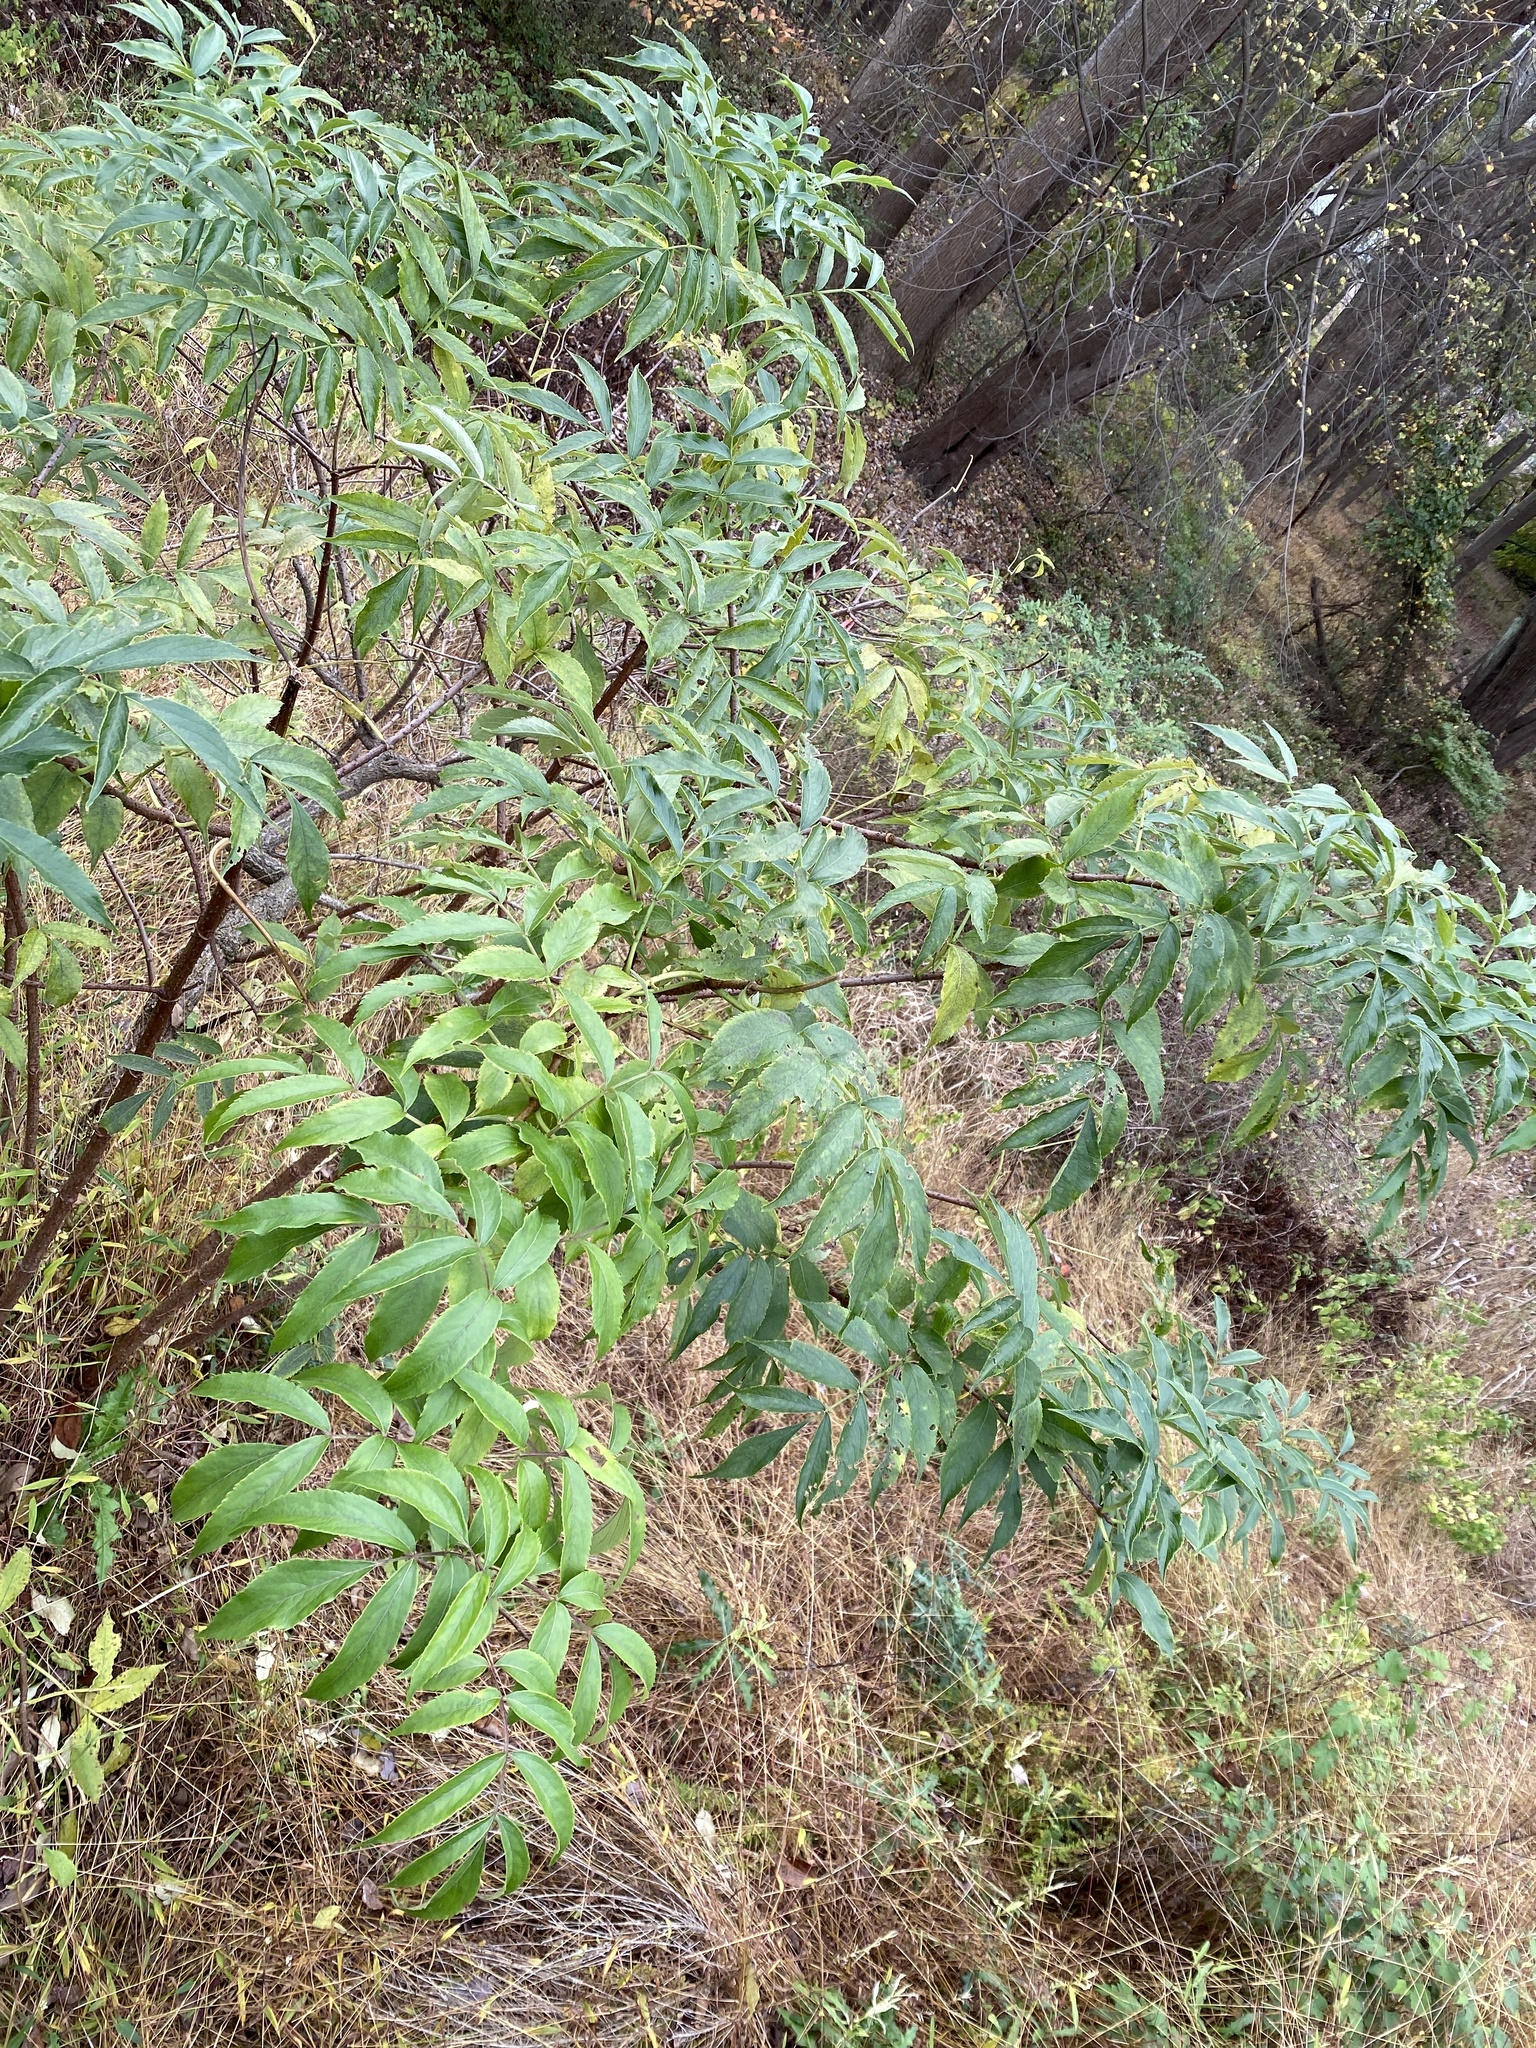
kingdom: Plantae
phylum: Tracheophyta
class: Magnoliopsida
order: Dipsacales
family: Viburnaceae
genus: Sambucus
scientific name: Sambucus canadensis
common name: American elder
